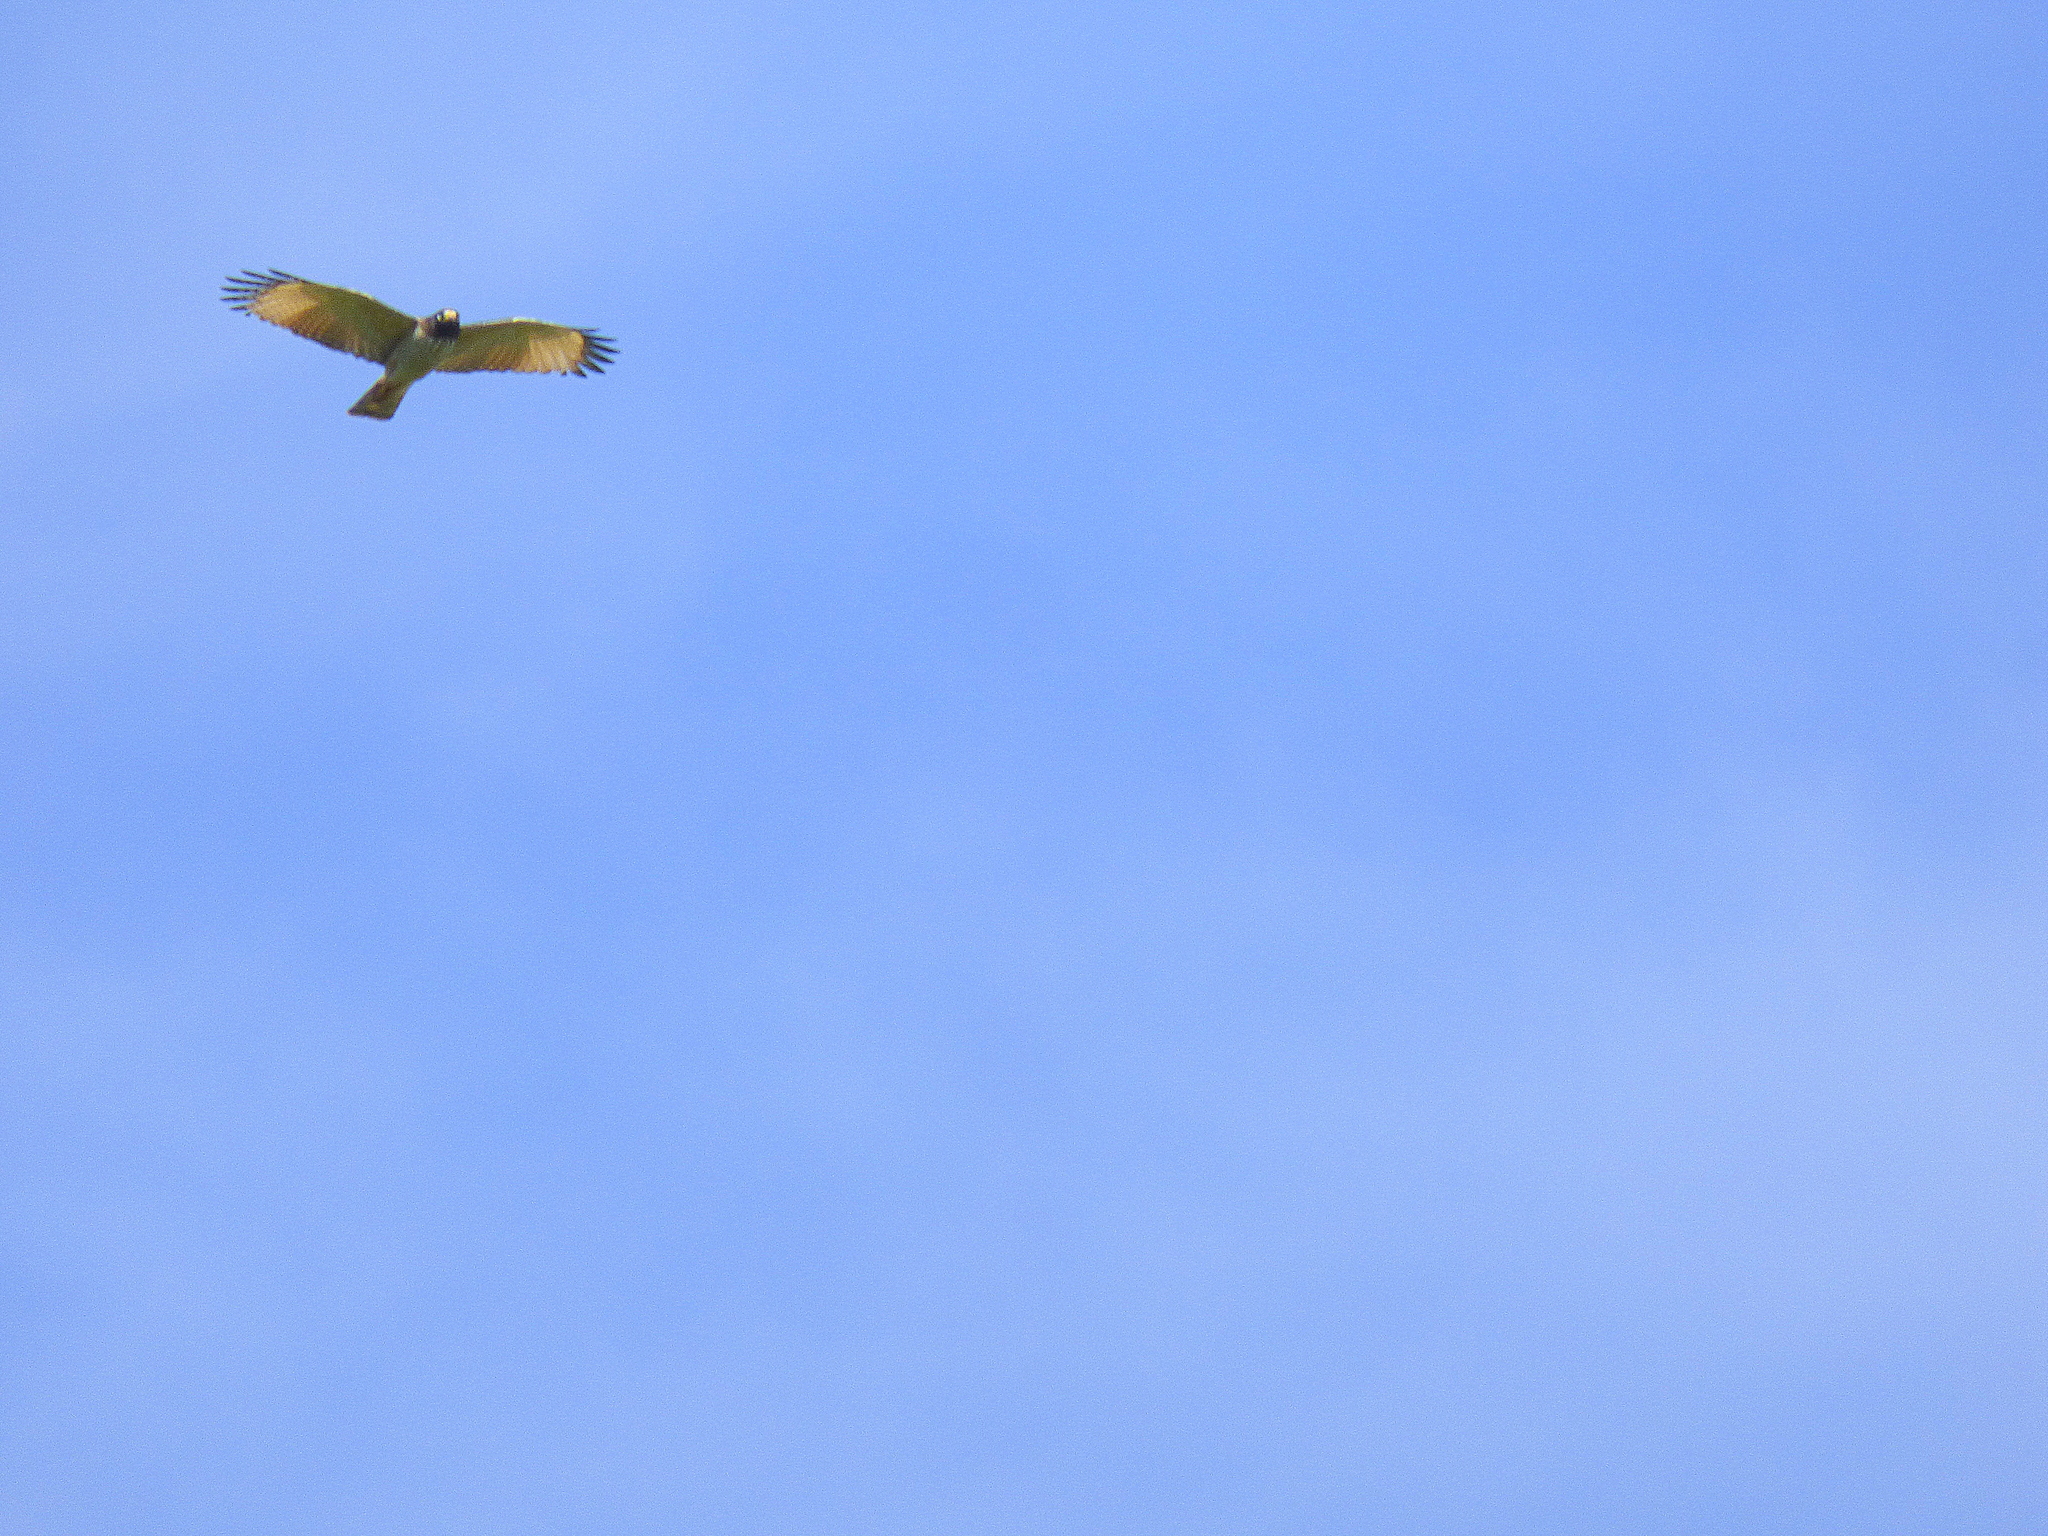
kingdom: Animalia
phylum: Chordata
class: Aves
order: Accipitriformes
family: Accipitridae
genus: Rupornis
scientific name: Rupornis magnirostris
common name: Roadside hawk
